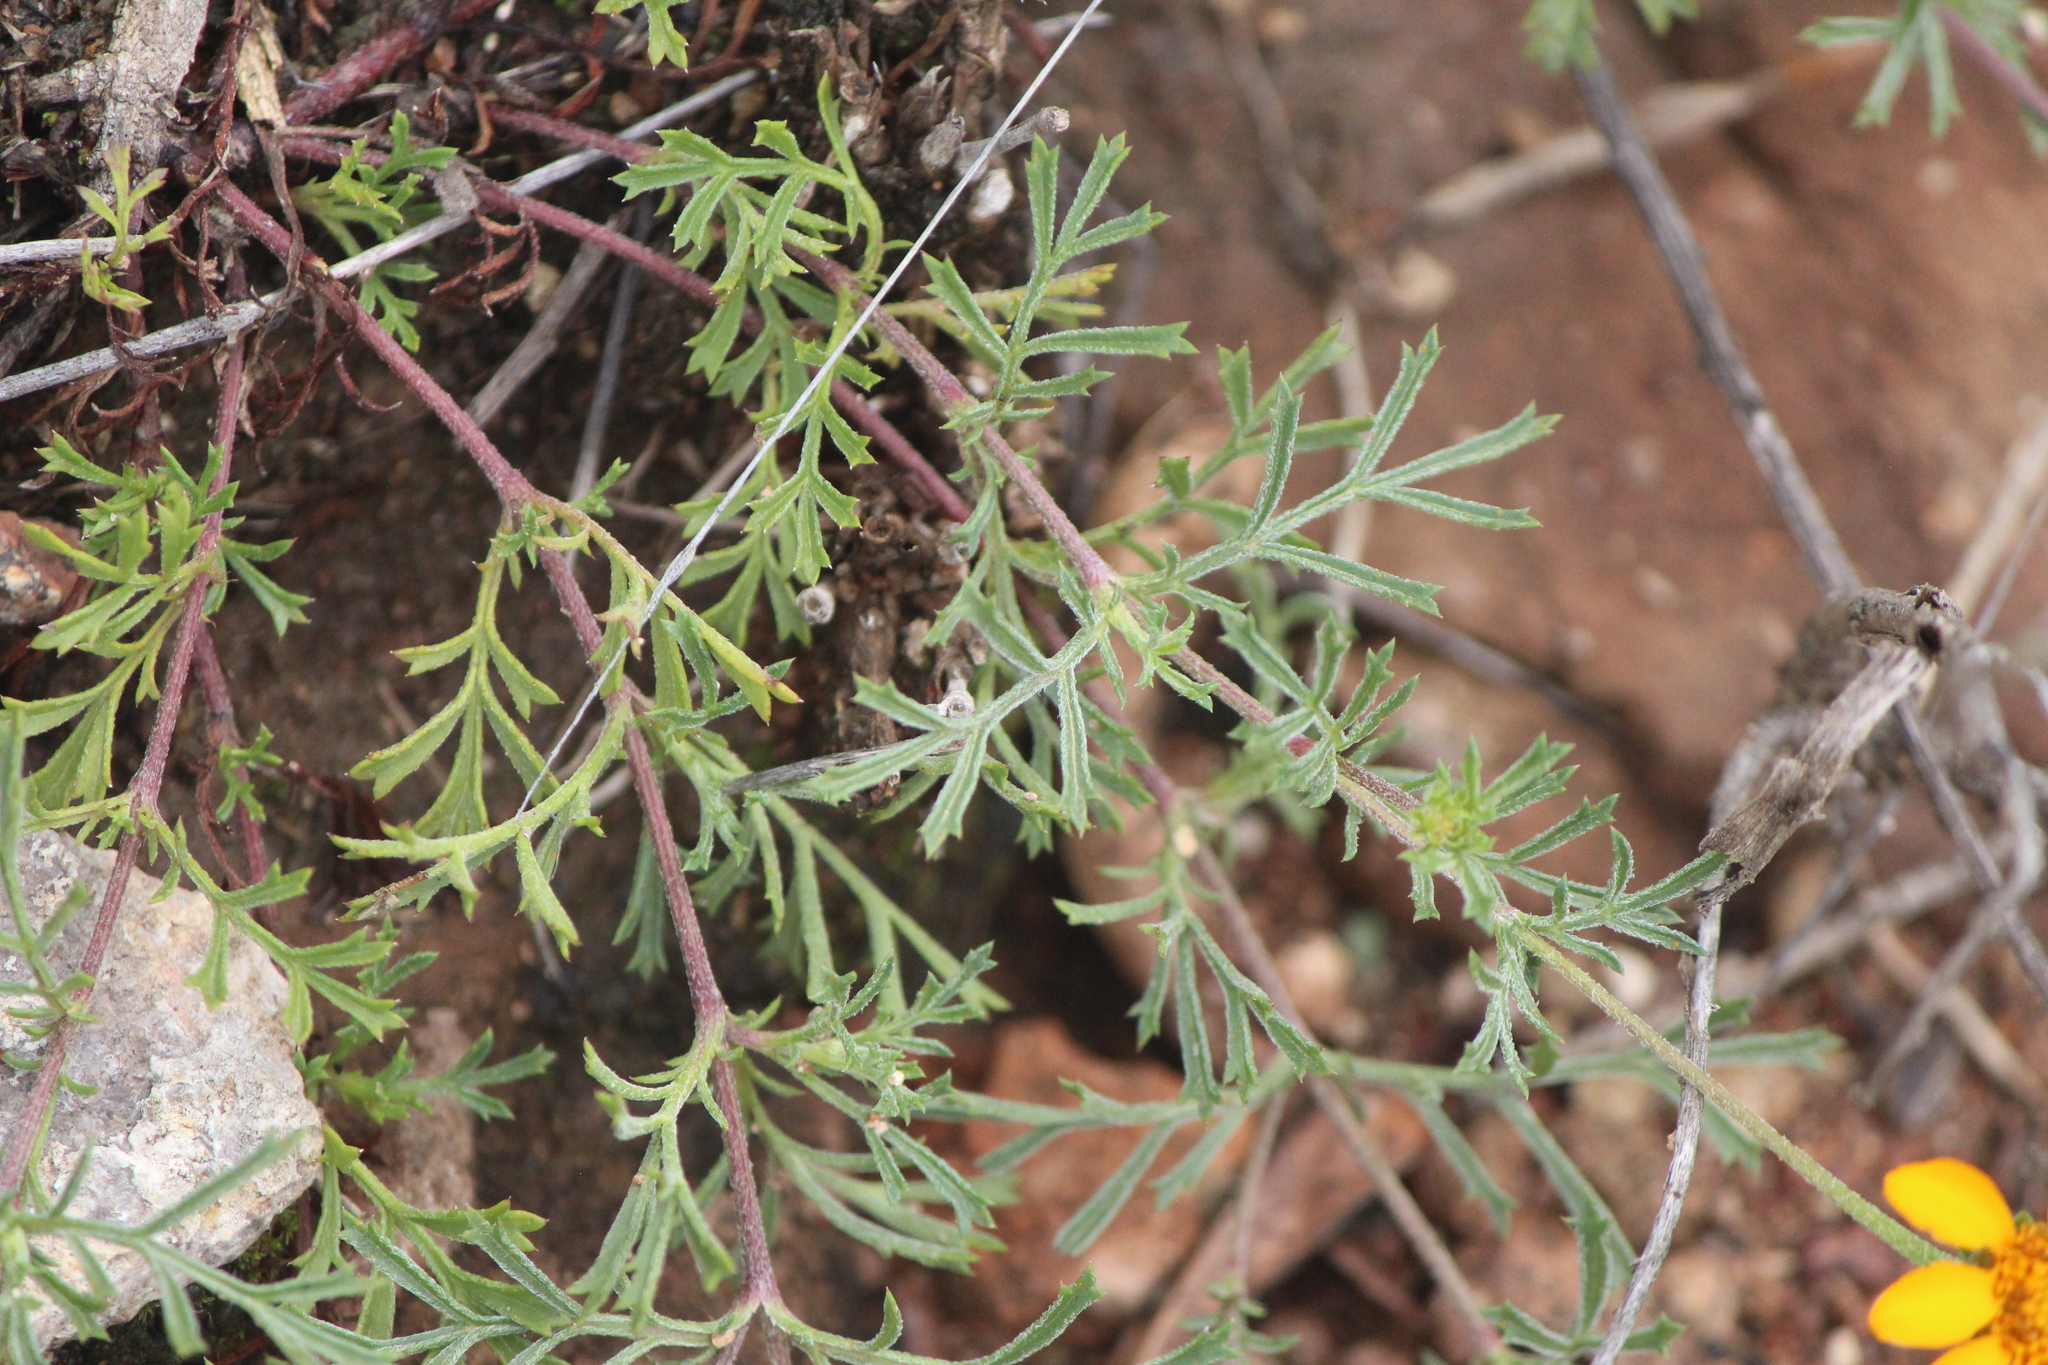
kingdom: Plantae
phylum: Tracheophyta
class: Magnoliopsida
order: Asterales
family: Asteraceae
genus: Dyssodia
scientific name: Dyssodia pinnata
